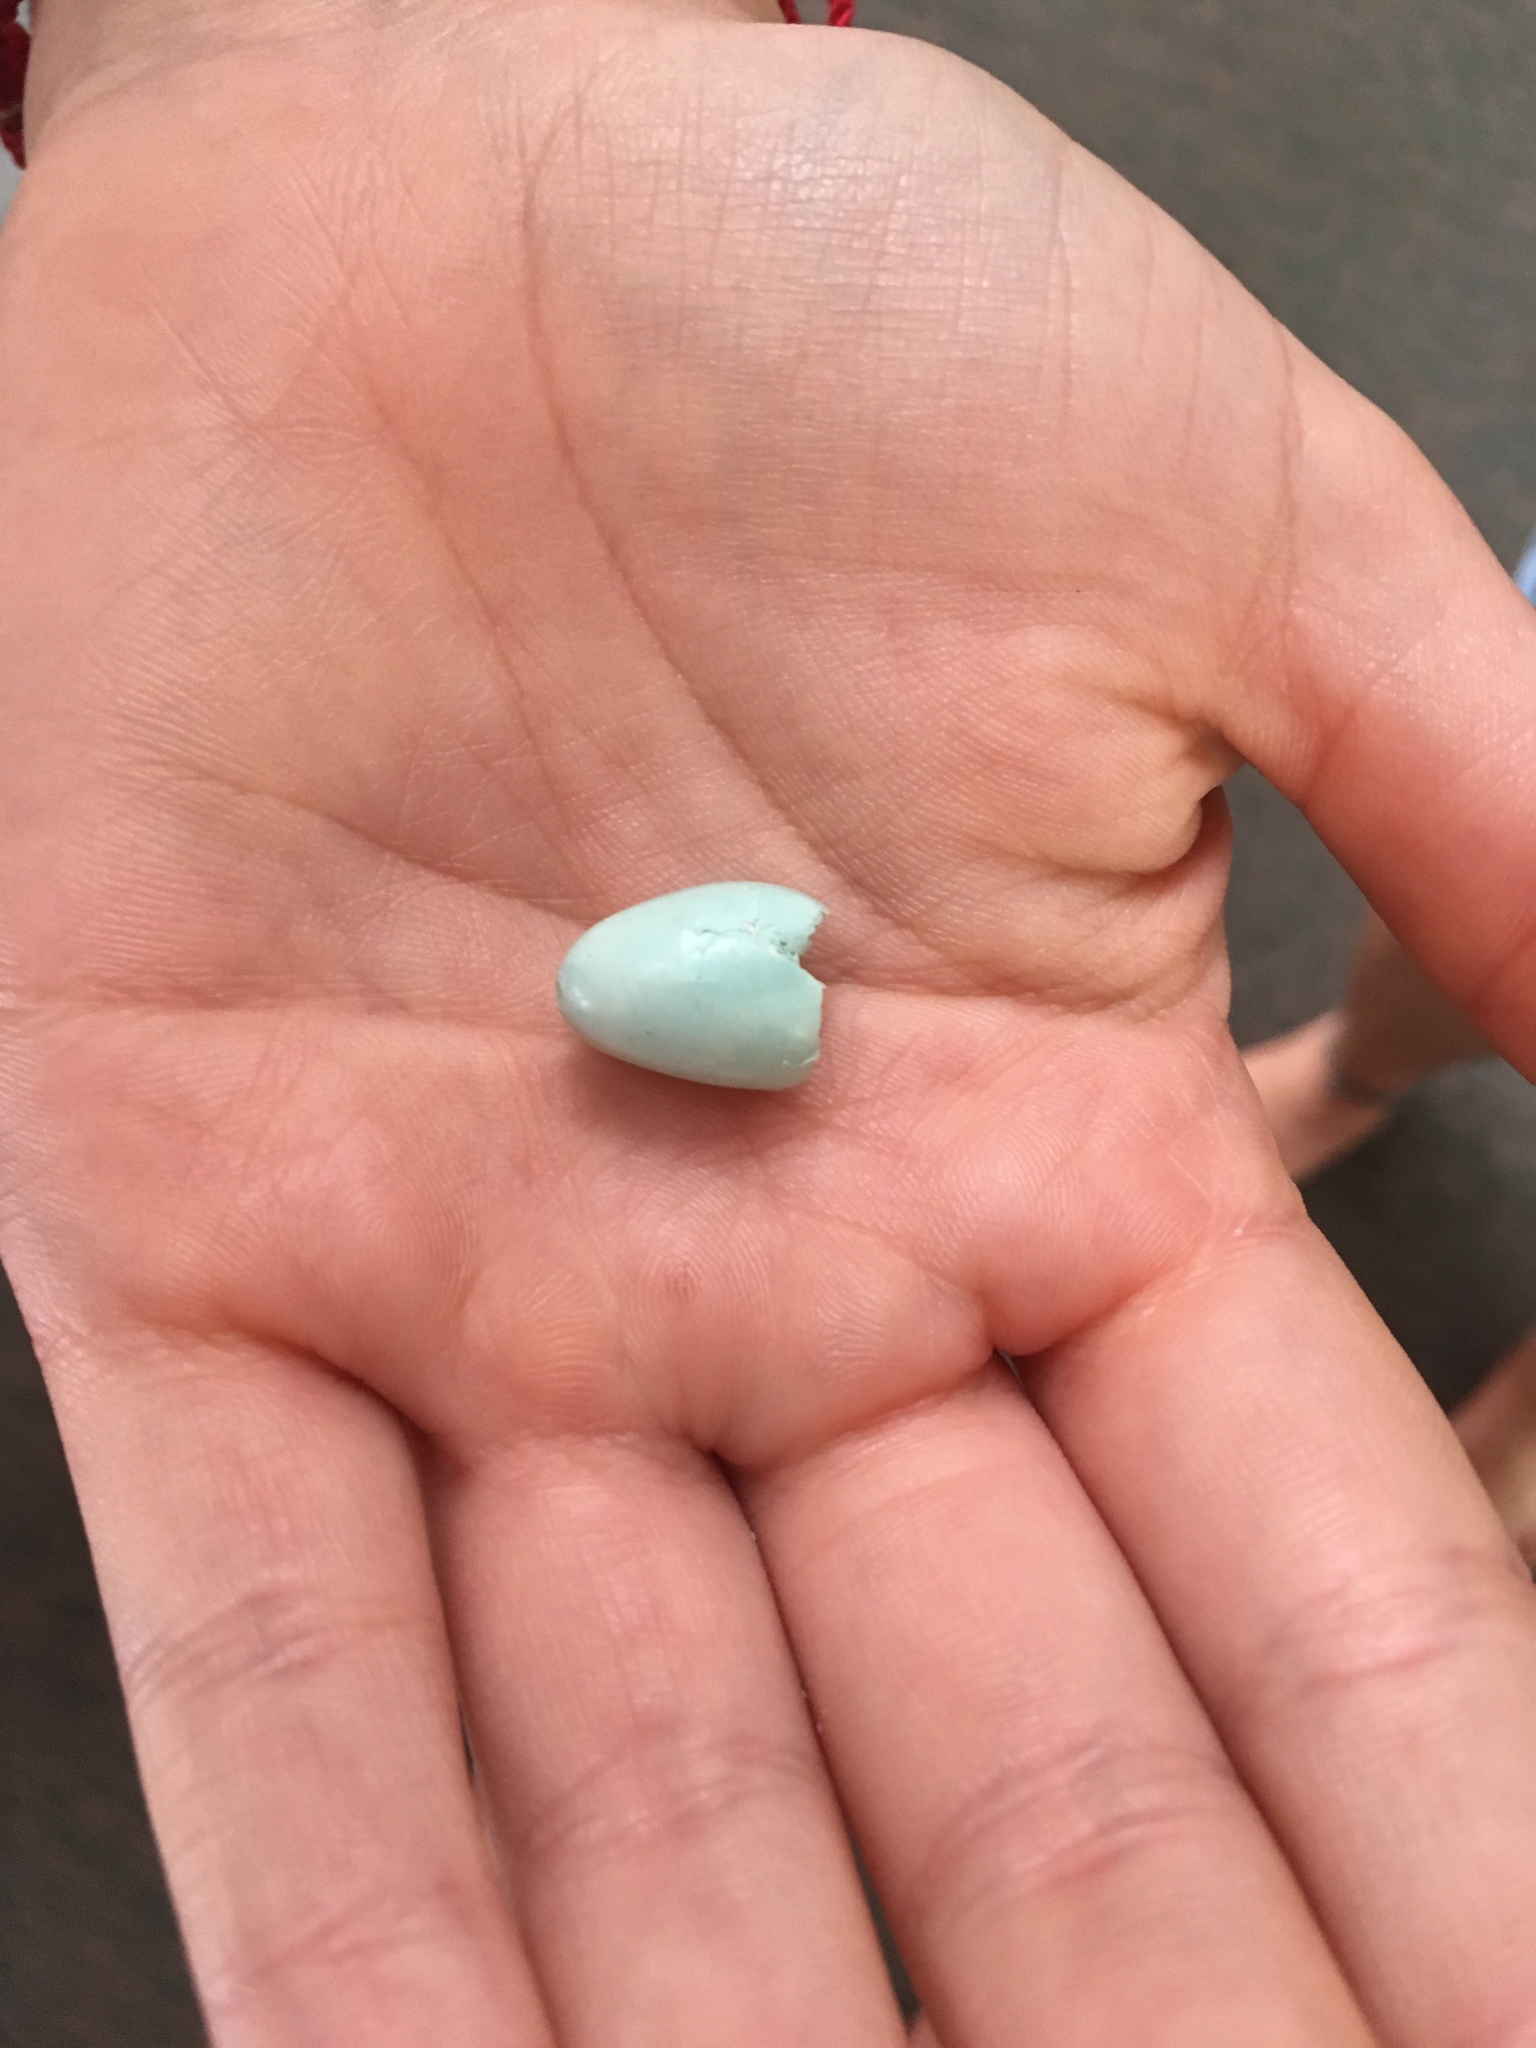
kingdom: Animalia
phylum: Chordata
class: Aves
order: Passeriformes
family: Prunellidae
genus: Prunella
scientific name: Prunella modularis
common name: Dunnock
